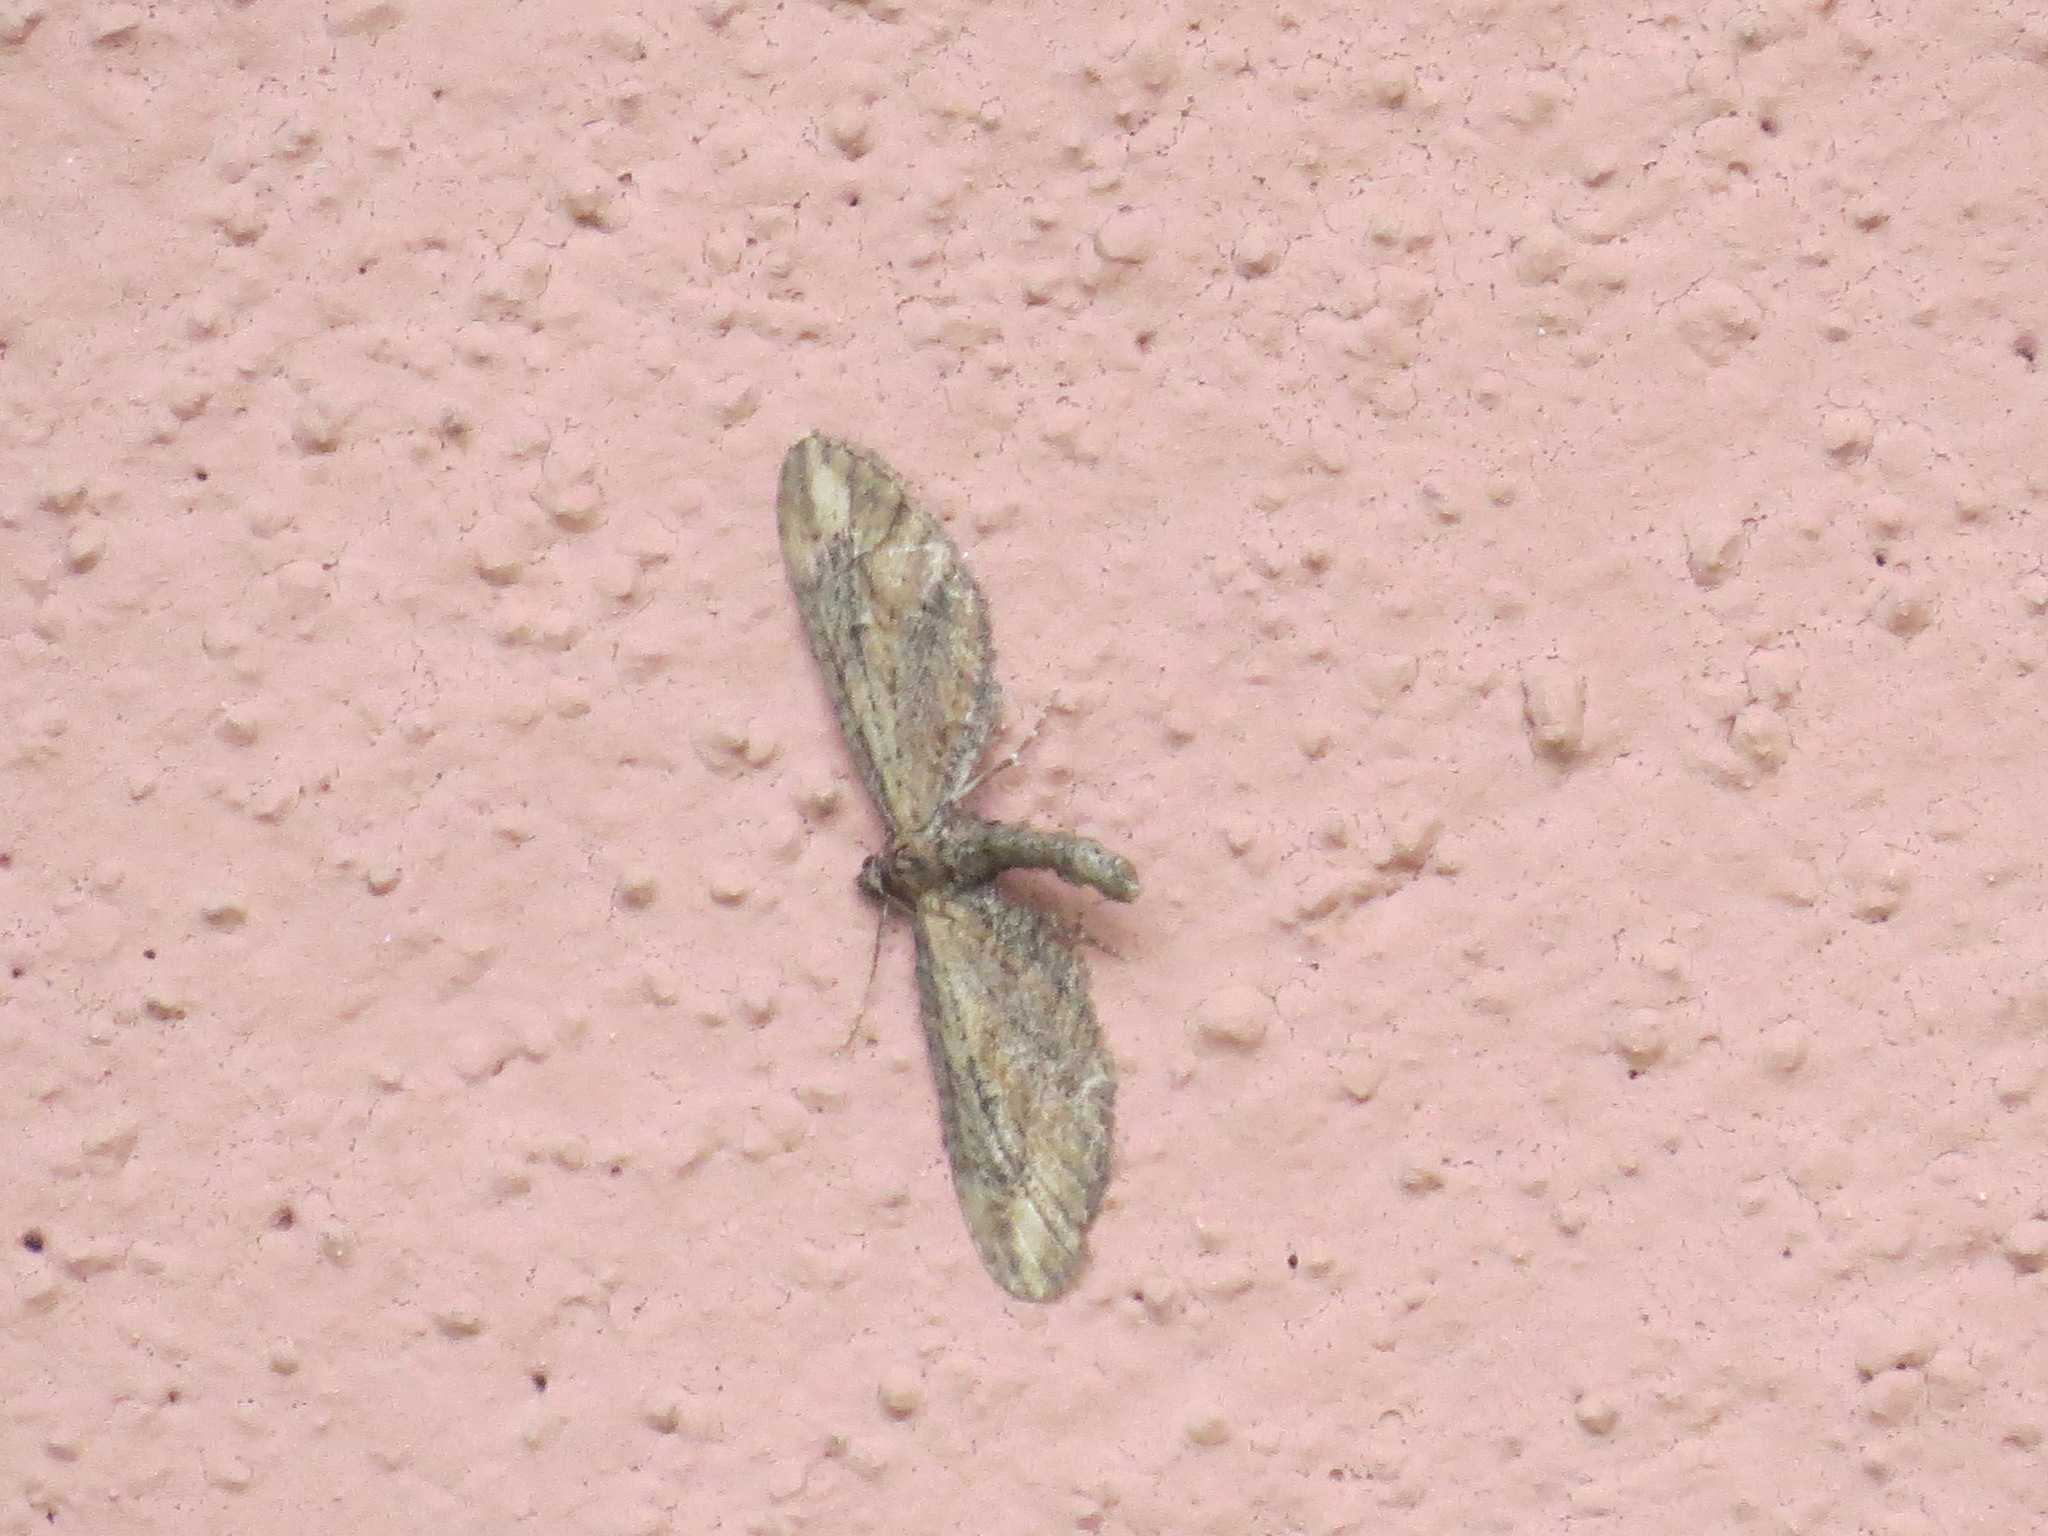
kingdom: Animalia
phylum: Arthropoda
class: Insecta
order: Lepidoptera
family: Geometridae
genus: Eupithecia
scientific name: Eupithecia subapicata
